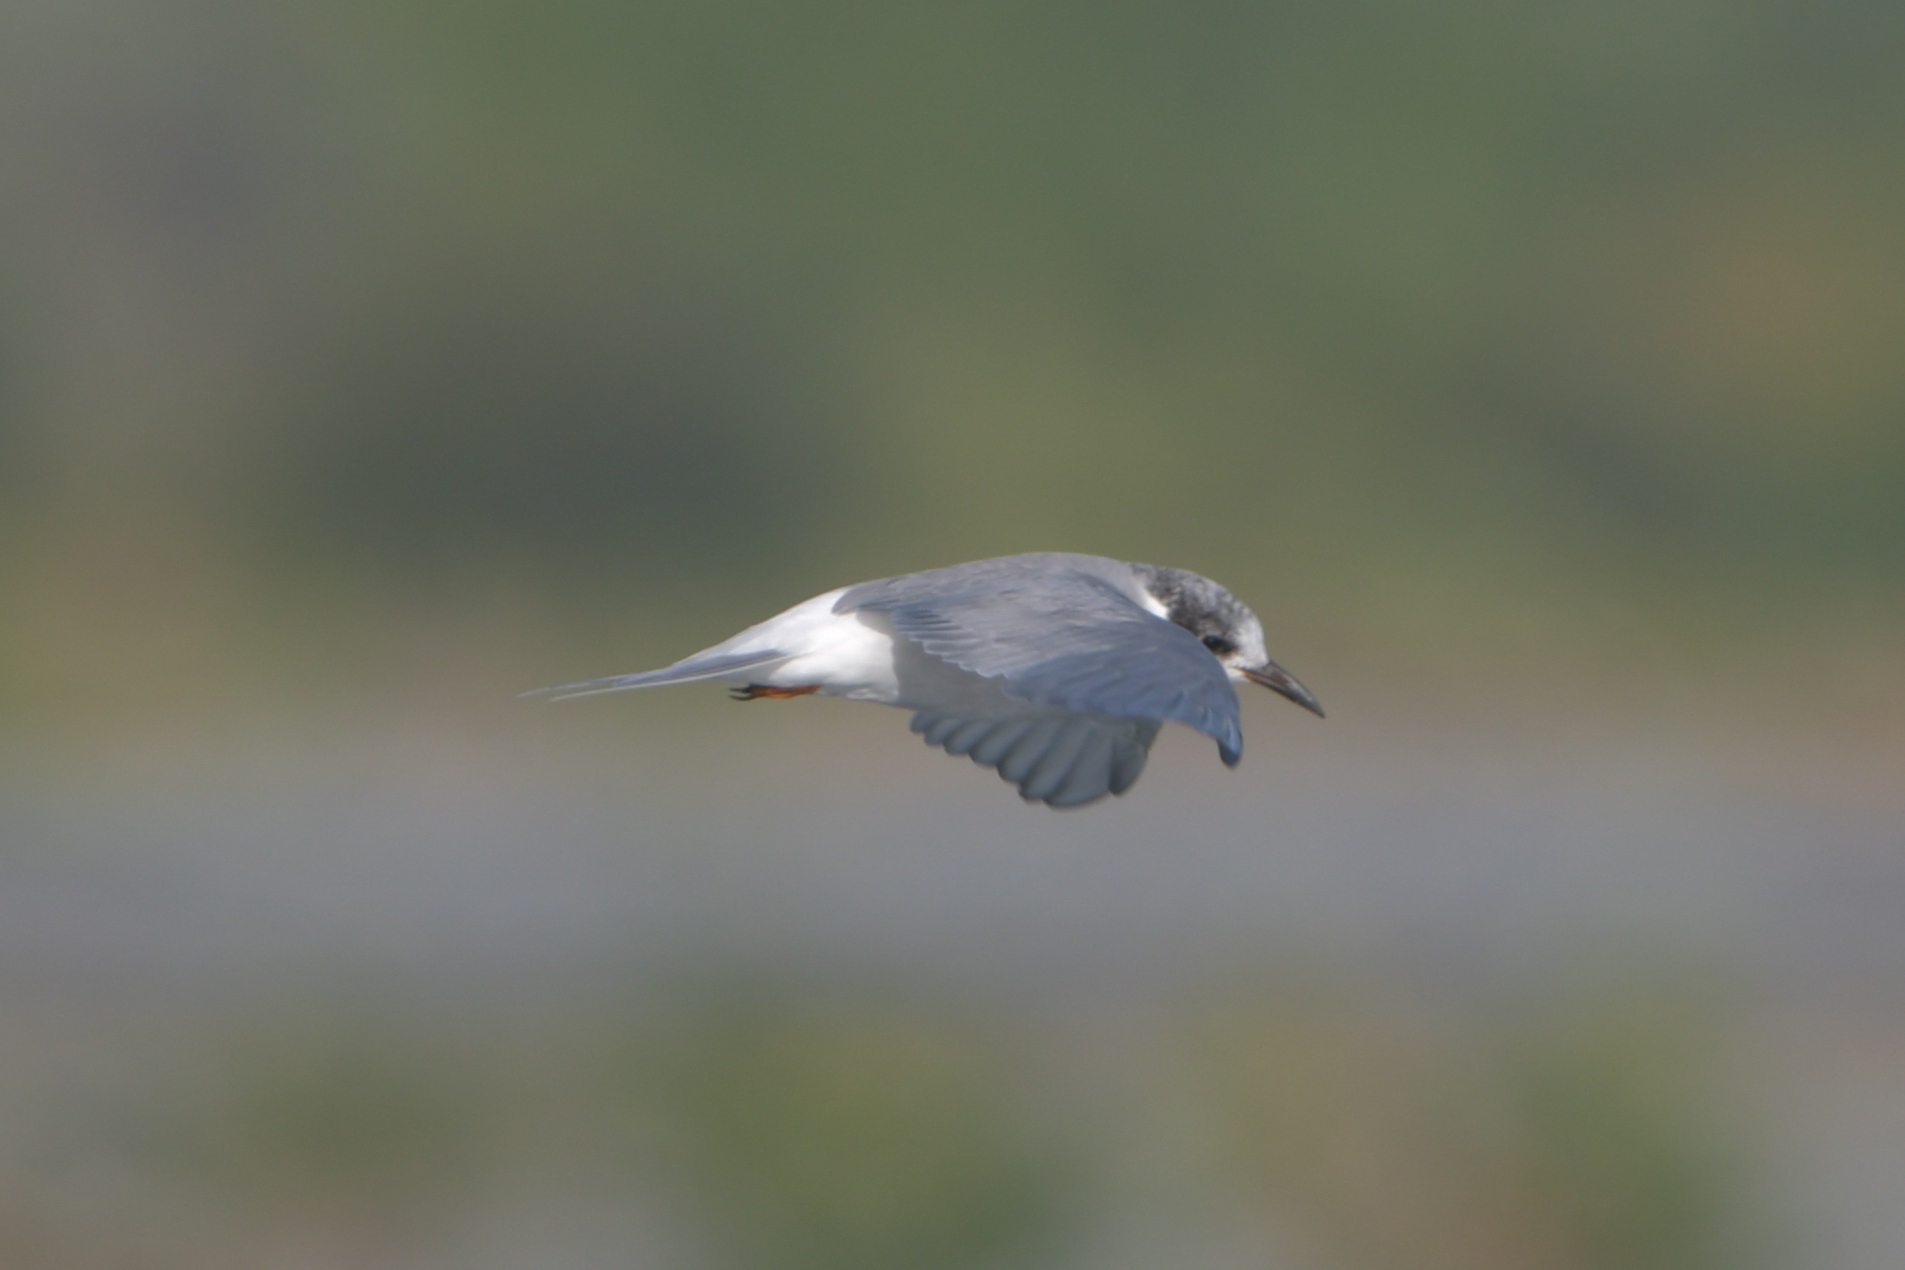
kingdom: Animalia
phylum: Chordata
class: Aves
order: Charadriiformes
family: Laridae
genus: Chlidonias
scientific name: Chlidonias albostriatus
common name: Black-fronted tern
